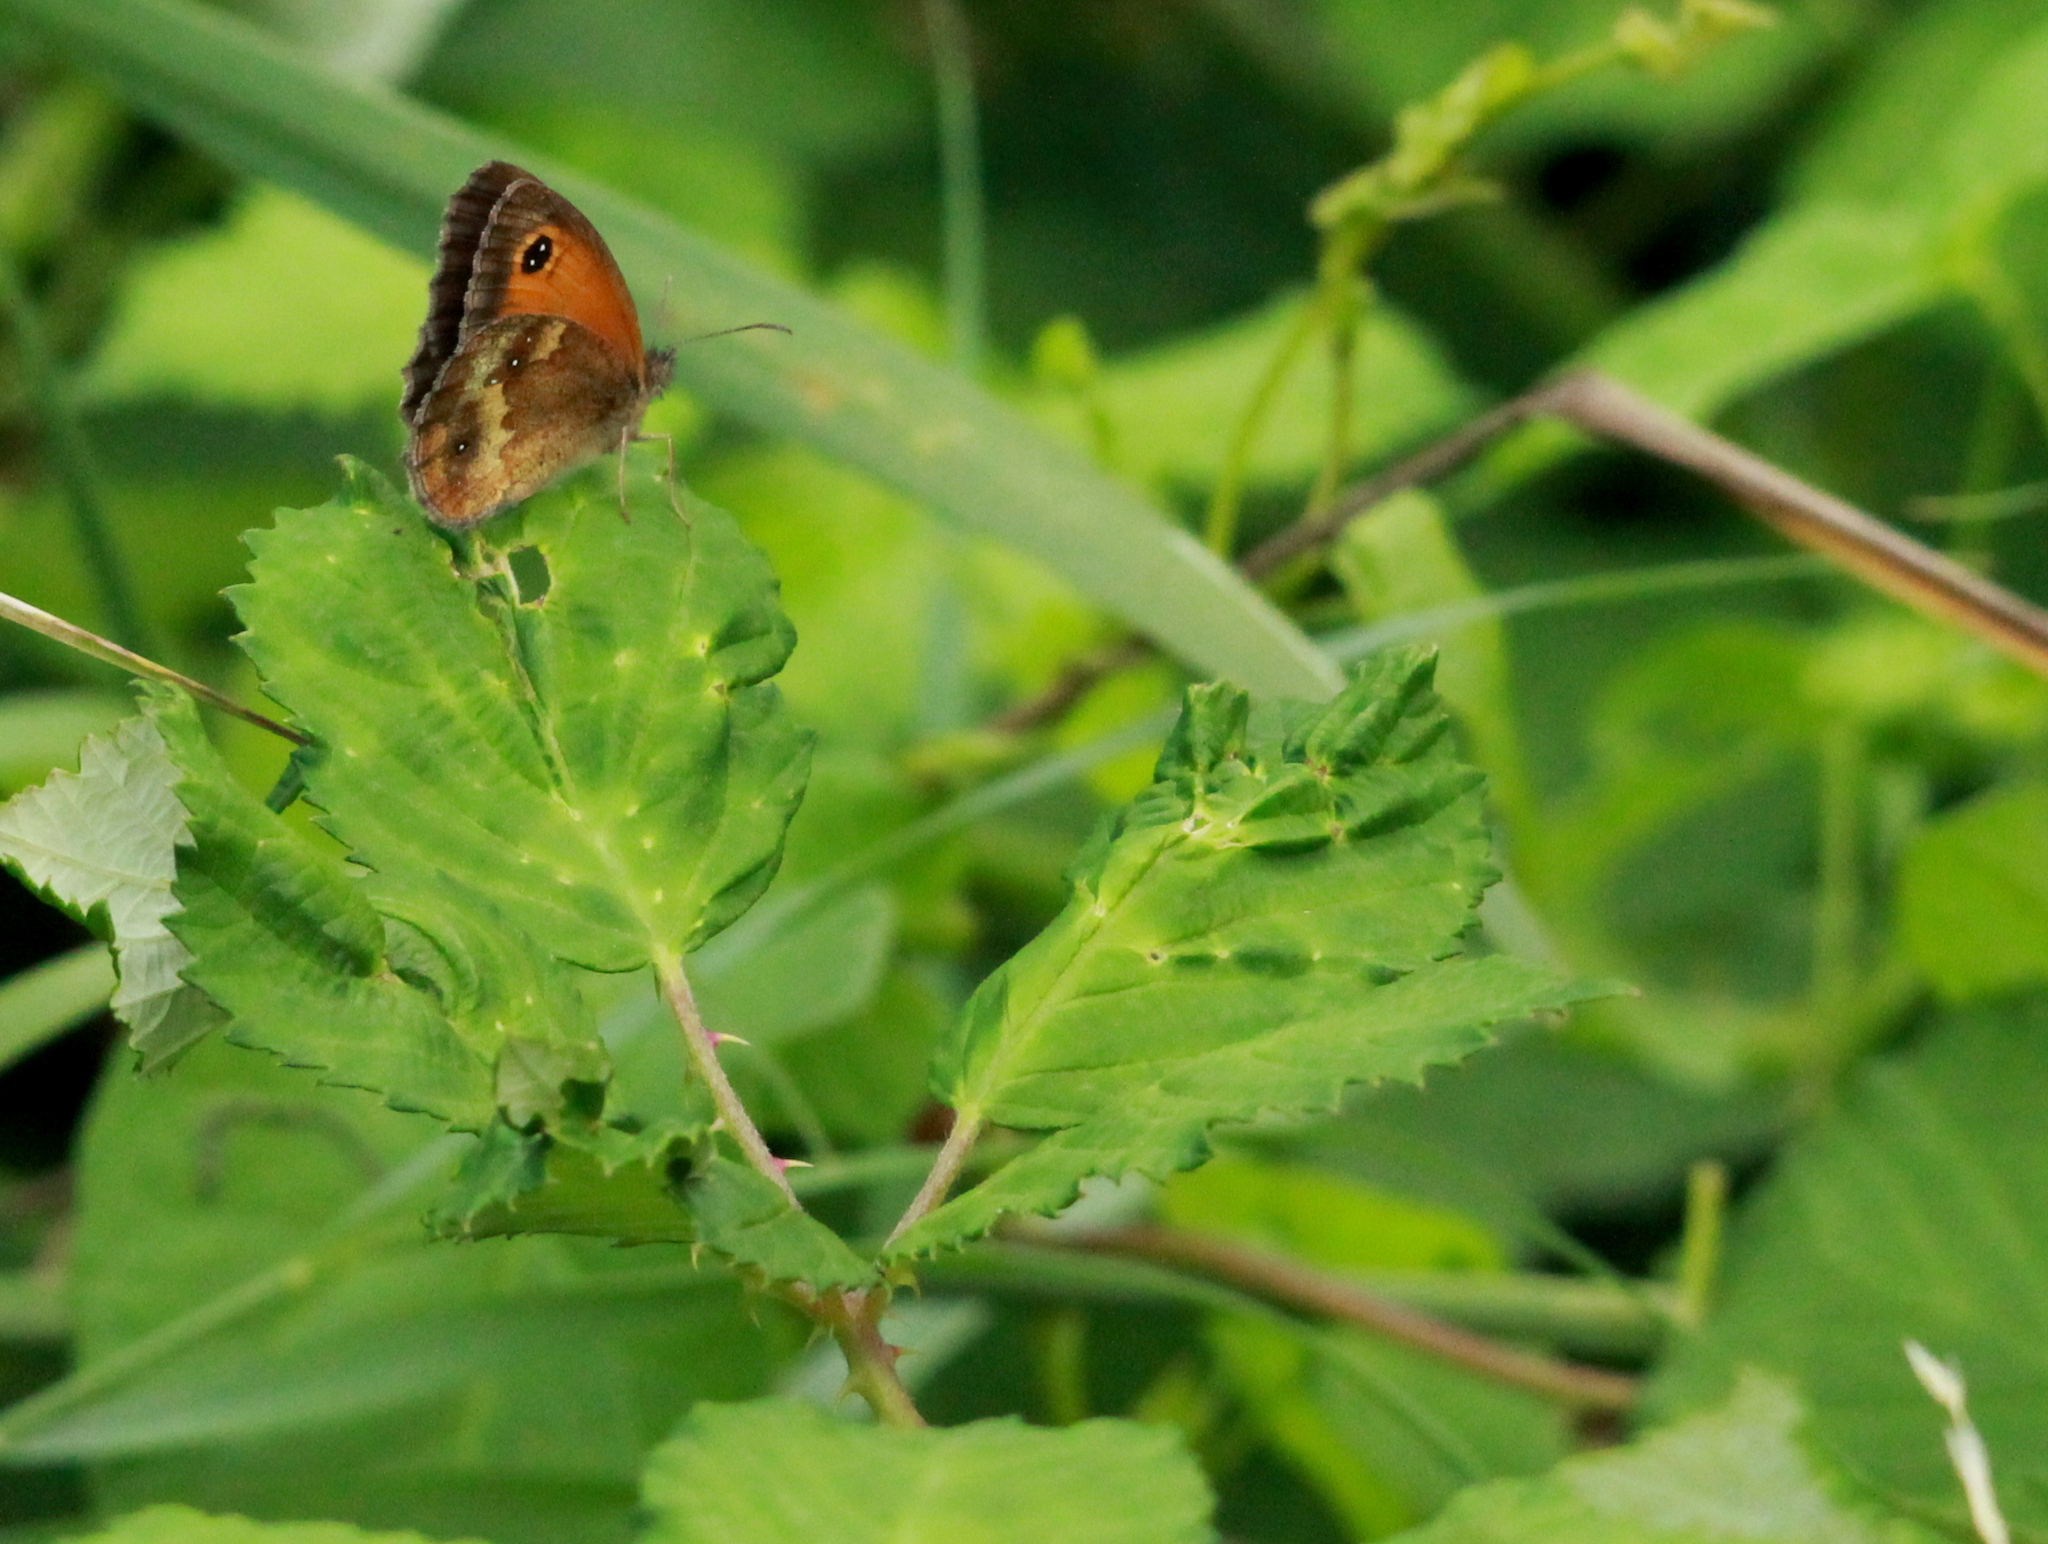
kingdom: Animalia
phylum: Arthropoda
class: Insecta
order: Lepidoptera
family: Nymphalidae
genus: Pyronia
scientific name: Pyronia tithonus
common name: Gatekeeper
